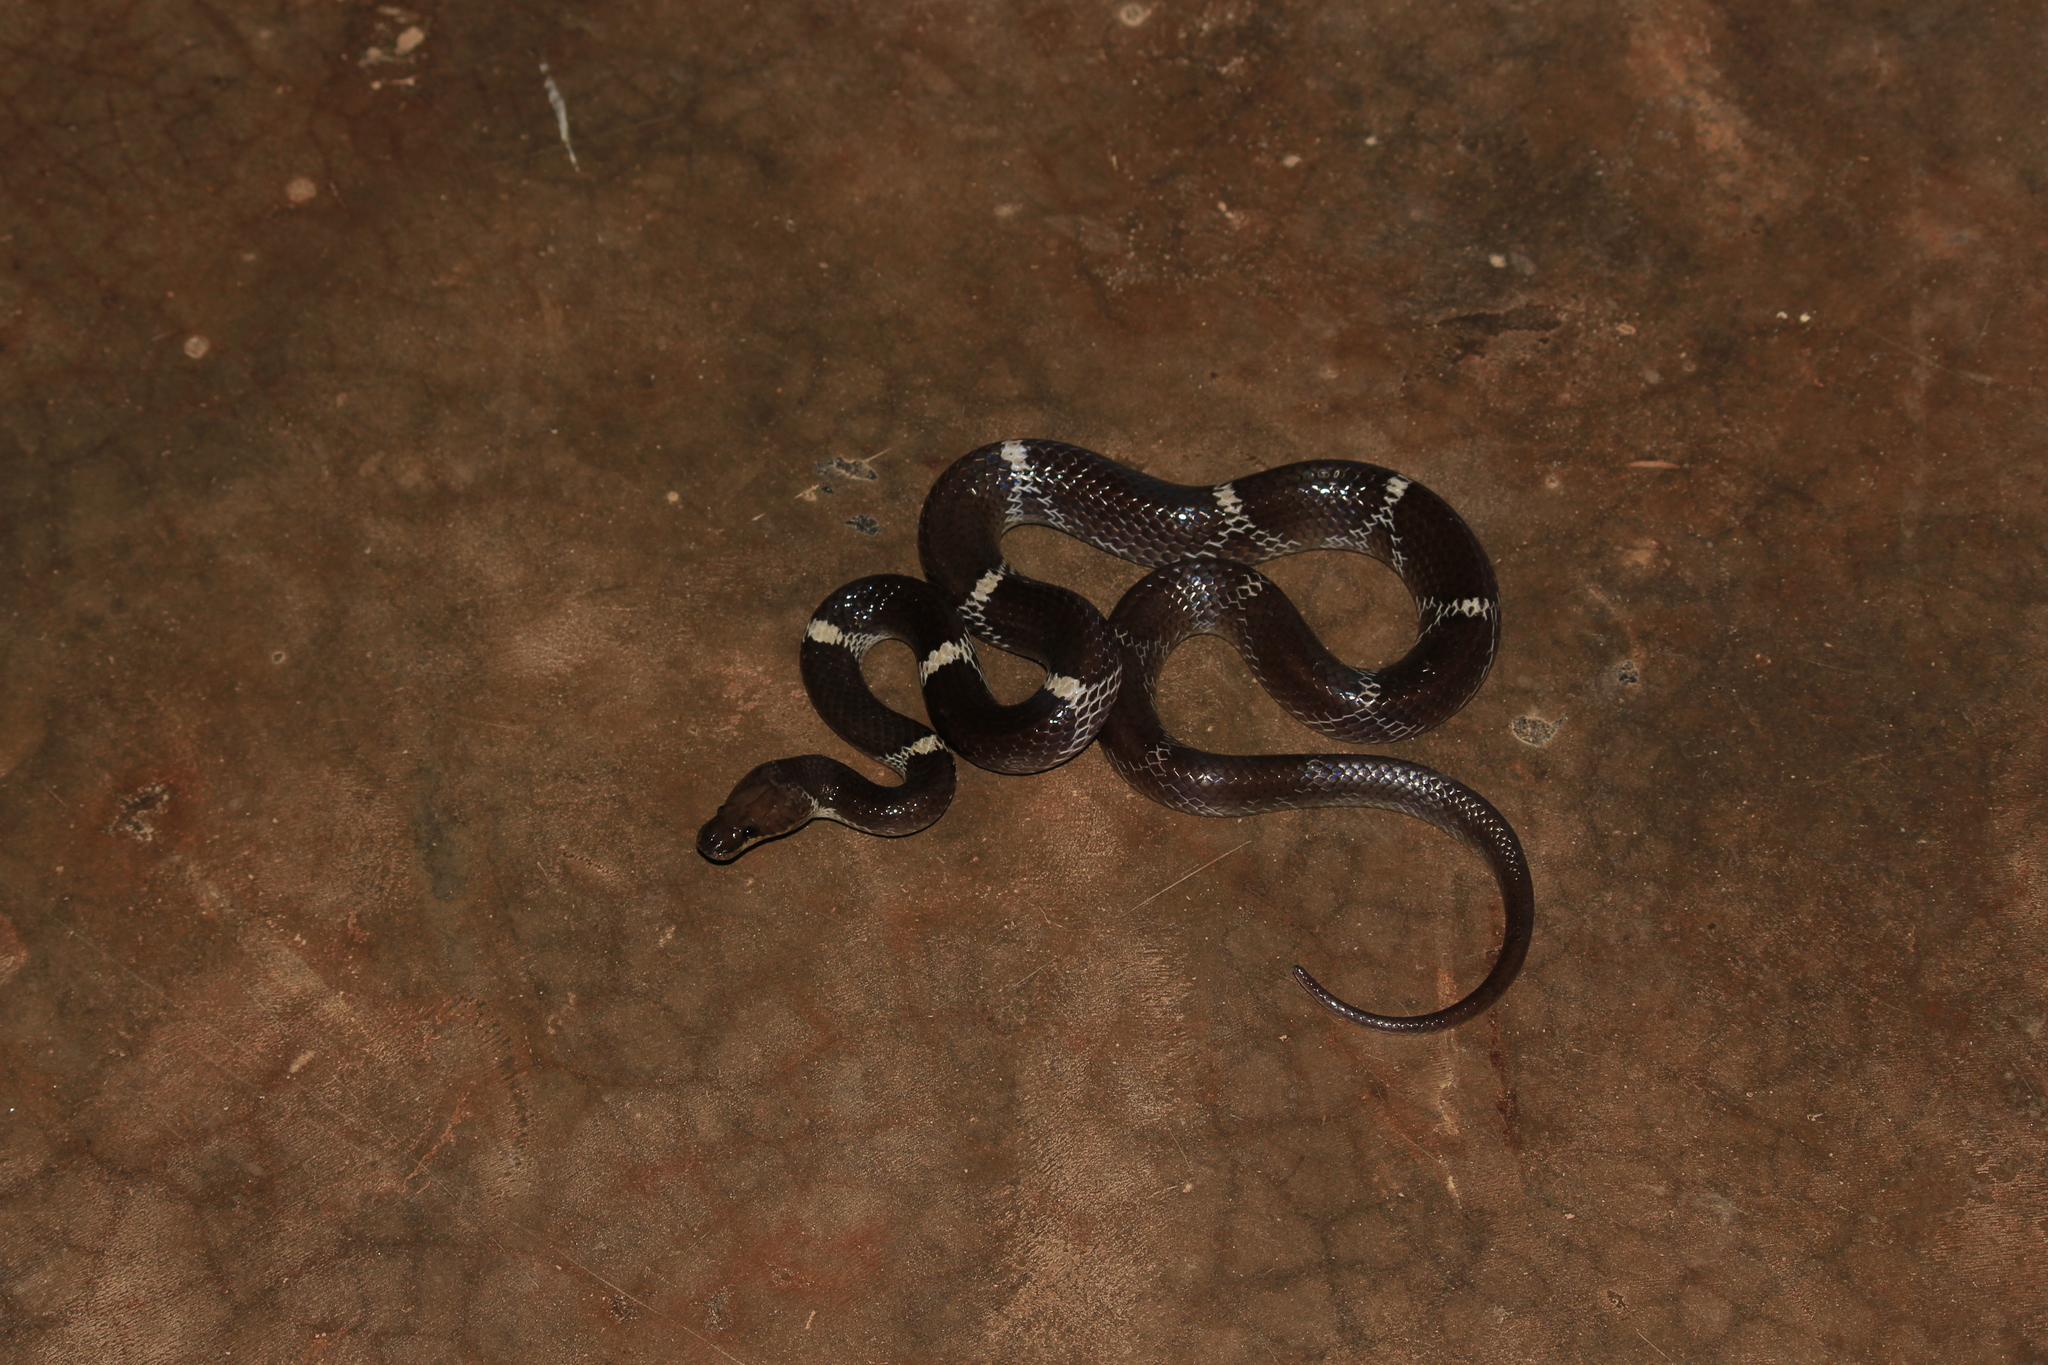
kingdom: Animalia
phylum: Chordata
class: Squamata
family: Colubridae
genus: Lycodon
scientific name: Lycodon aulicus
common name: Common wolf snake
